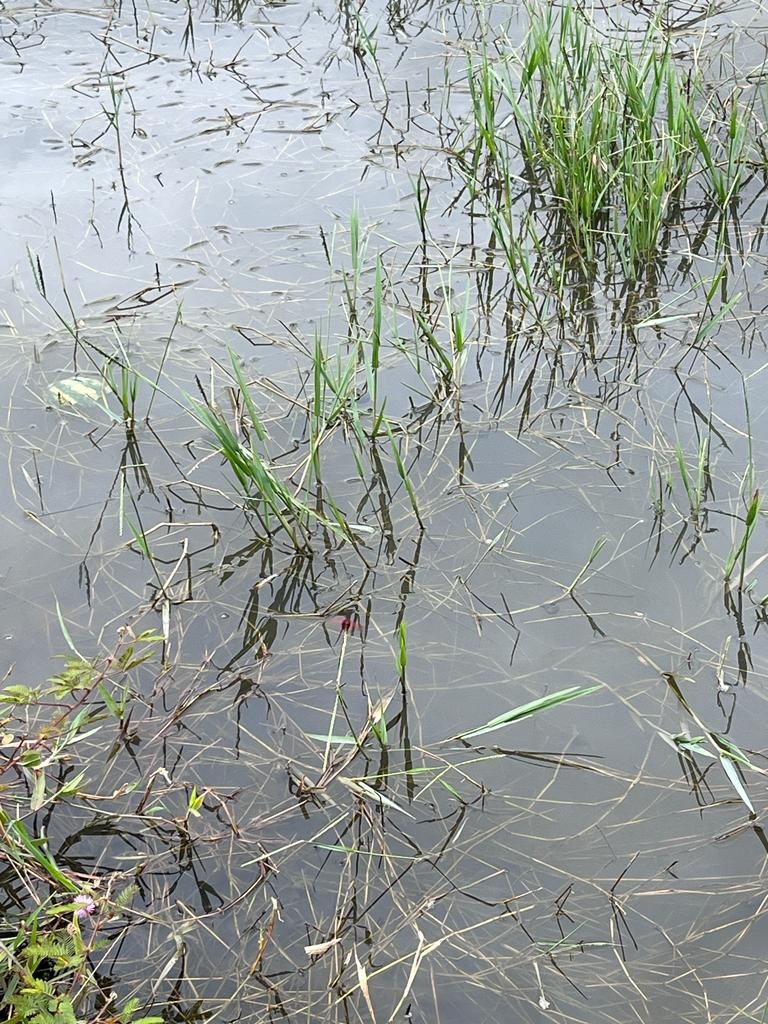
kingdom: Animalia
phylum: Arthropoda
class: Insecta
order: Odonata
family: Libellulidae
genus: Trithemis
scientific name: Trithemis aurora
